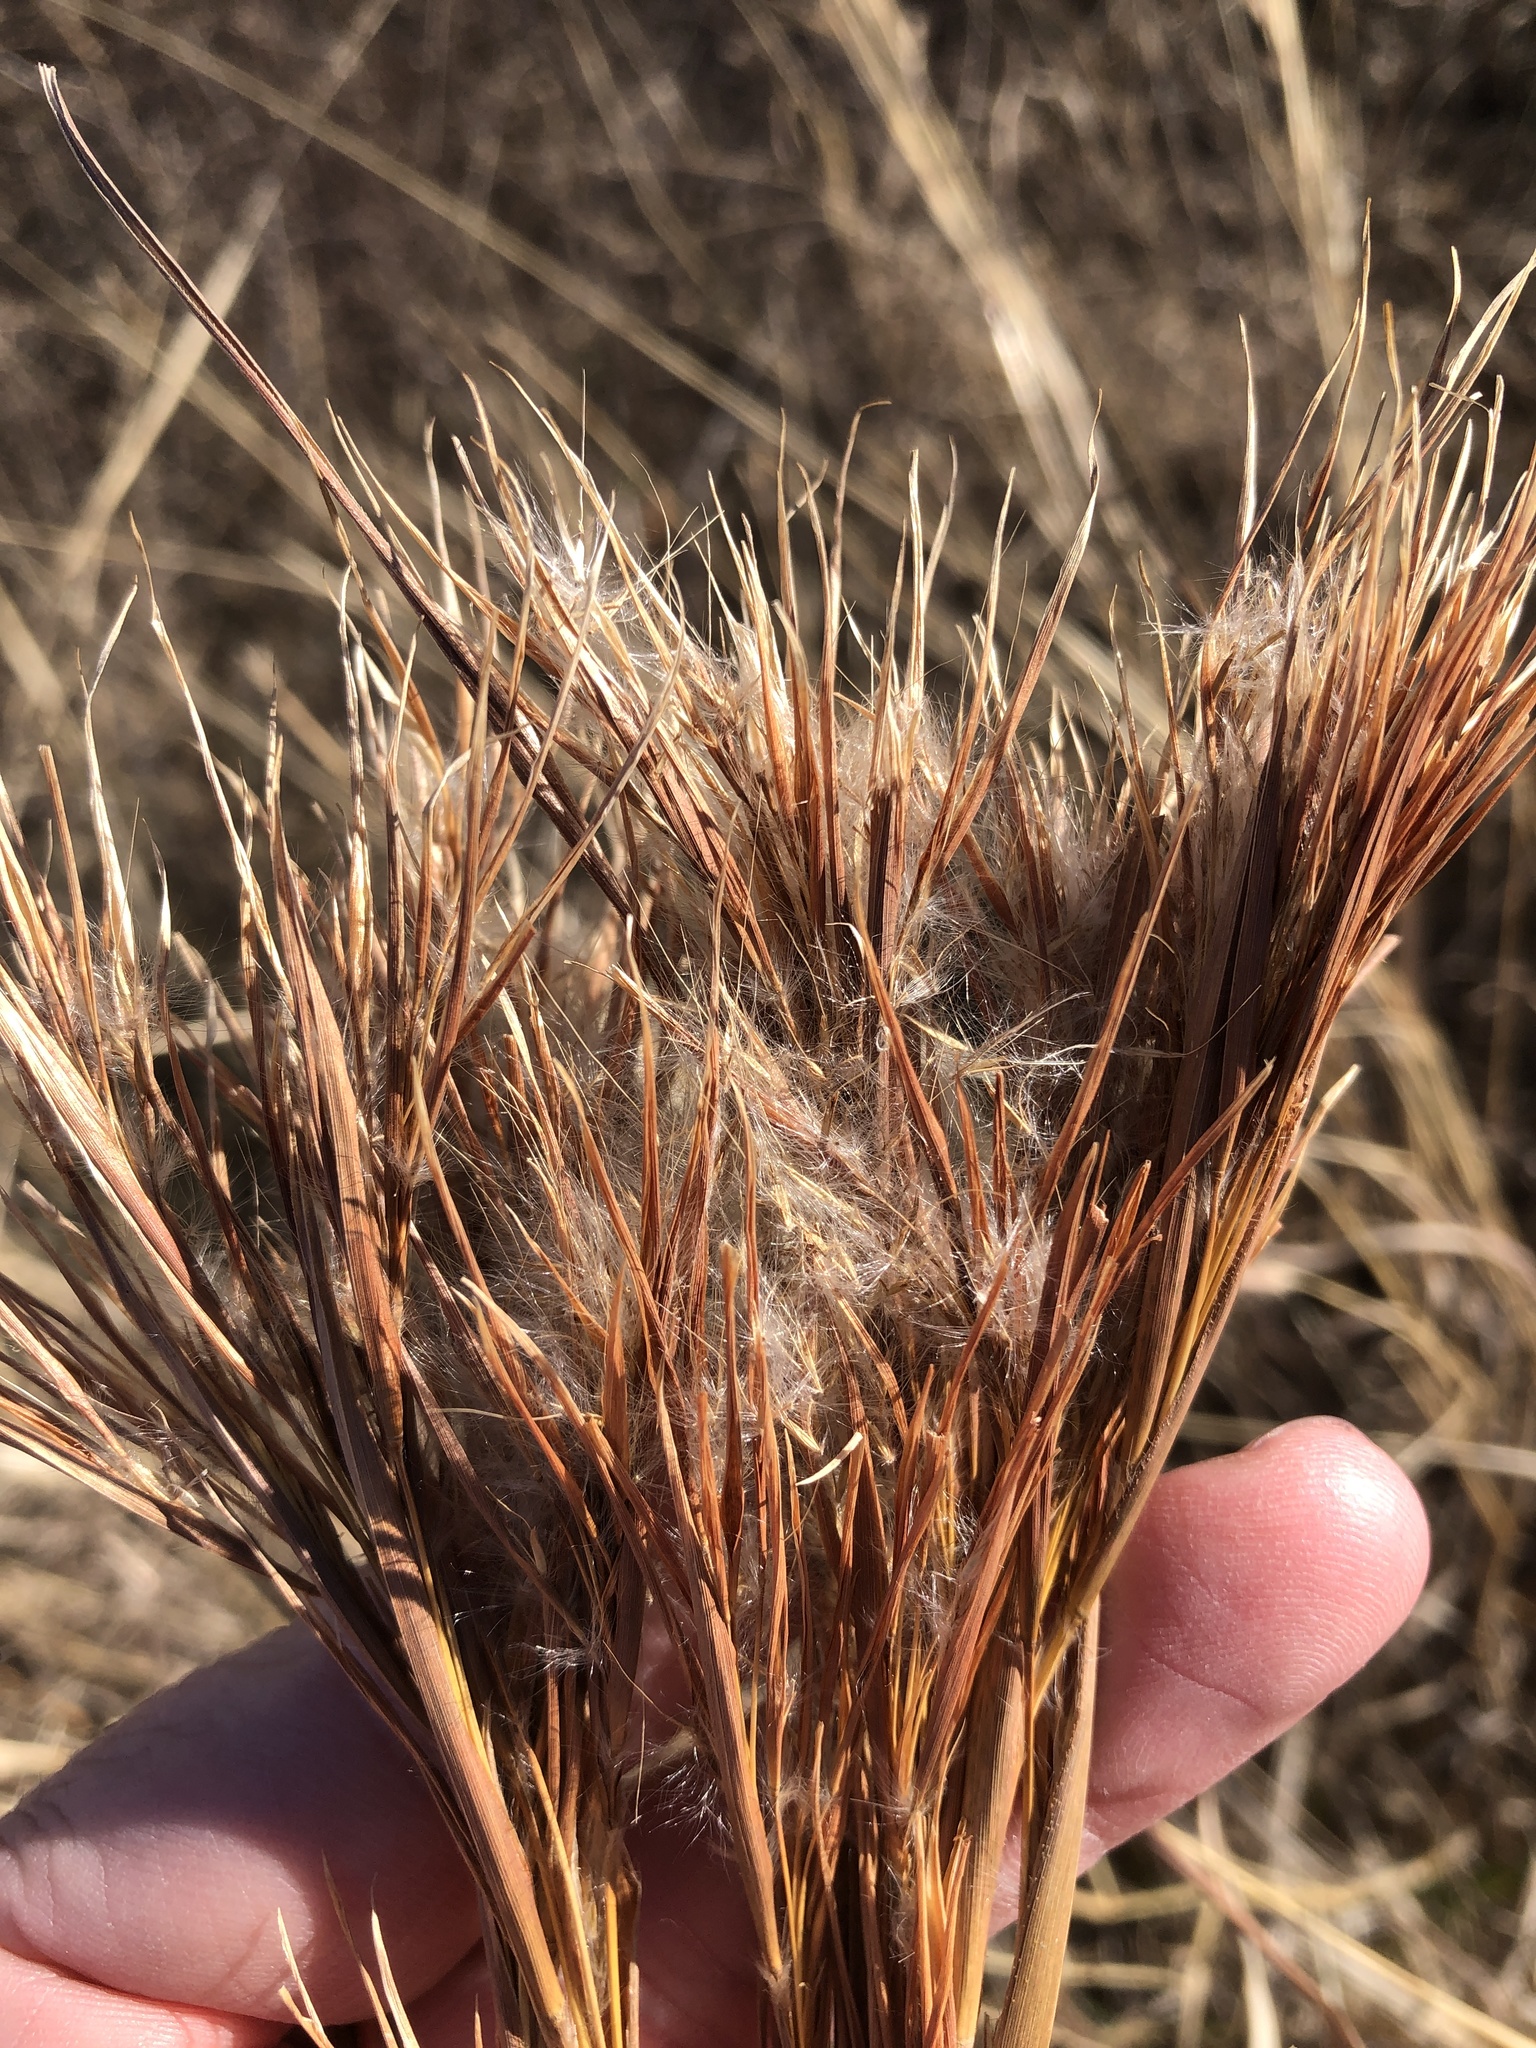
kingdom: Plantae
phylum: Tracheophyta
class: Liliopsida
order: Poales
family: Poaceae
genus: Andropogon
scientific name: Andropogon tenuispatheus
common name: Bushy bluestem
